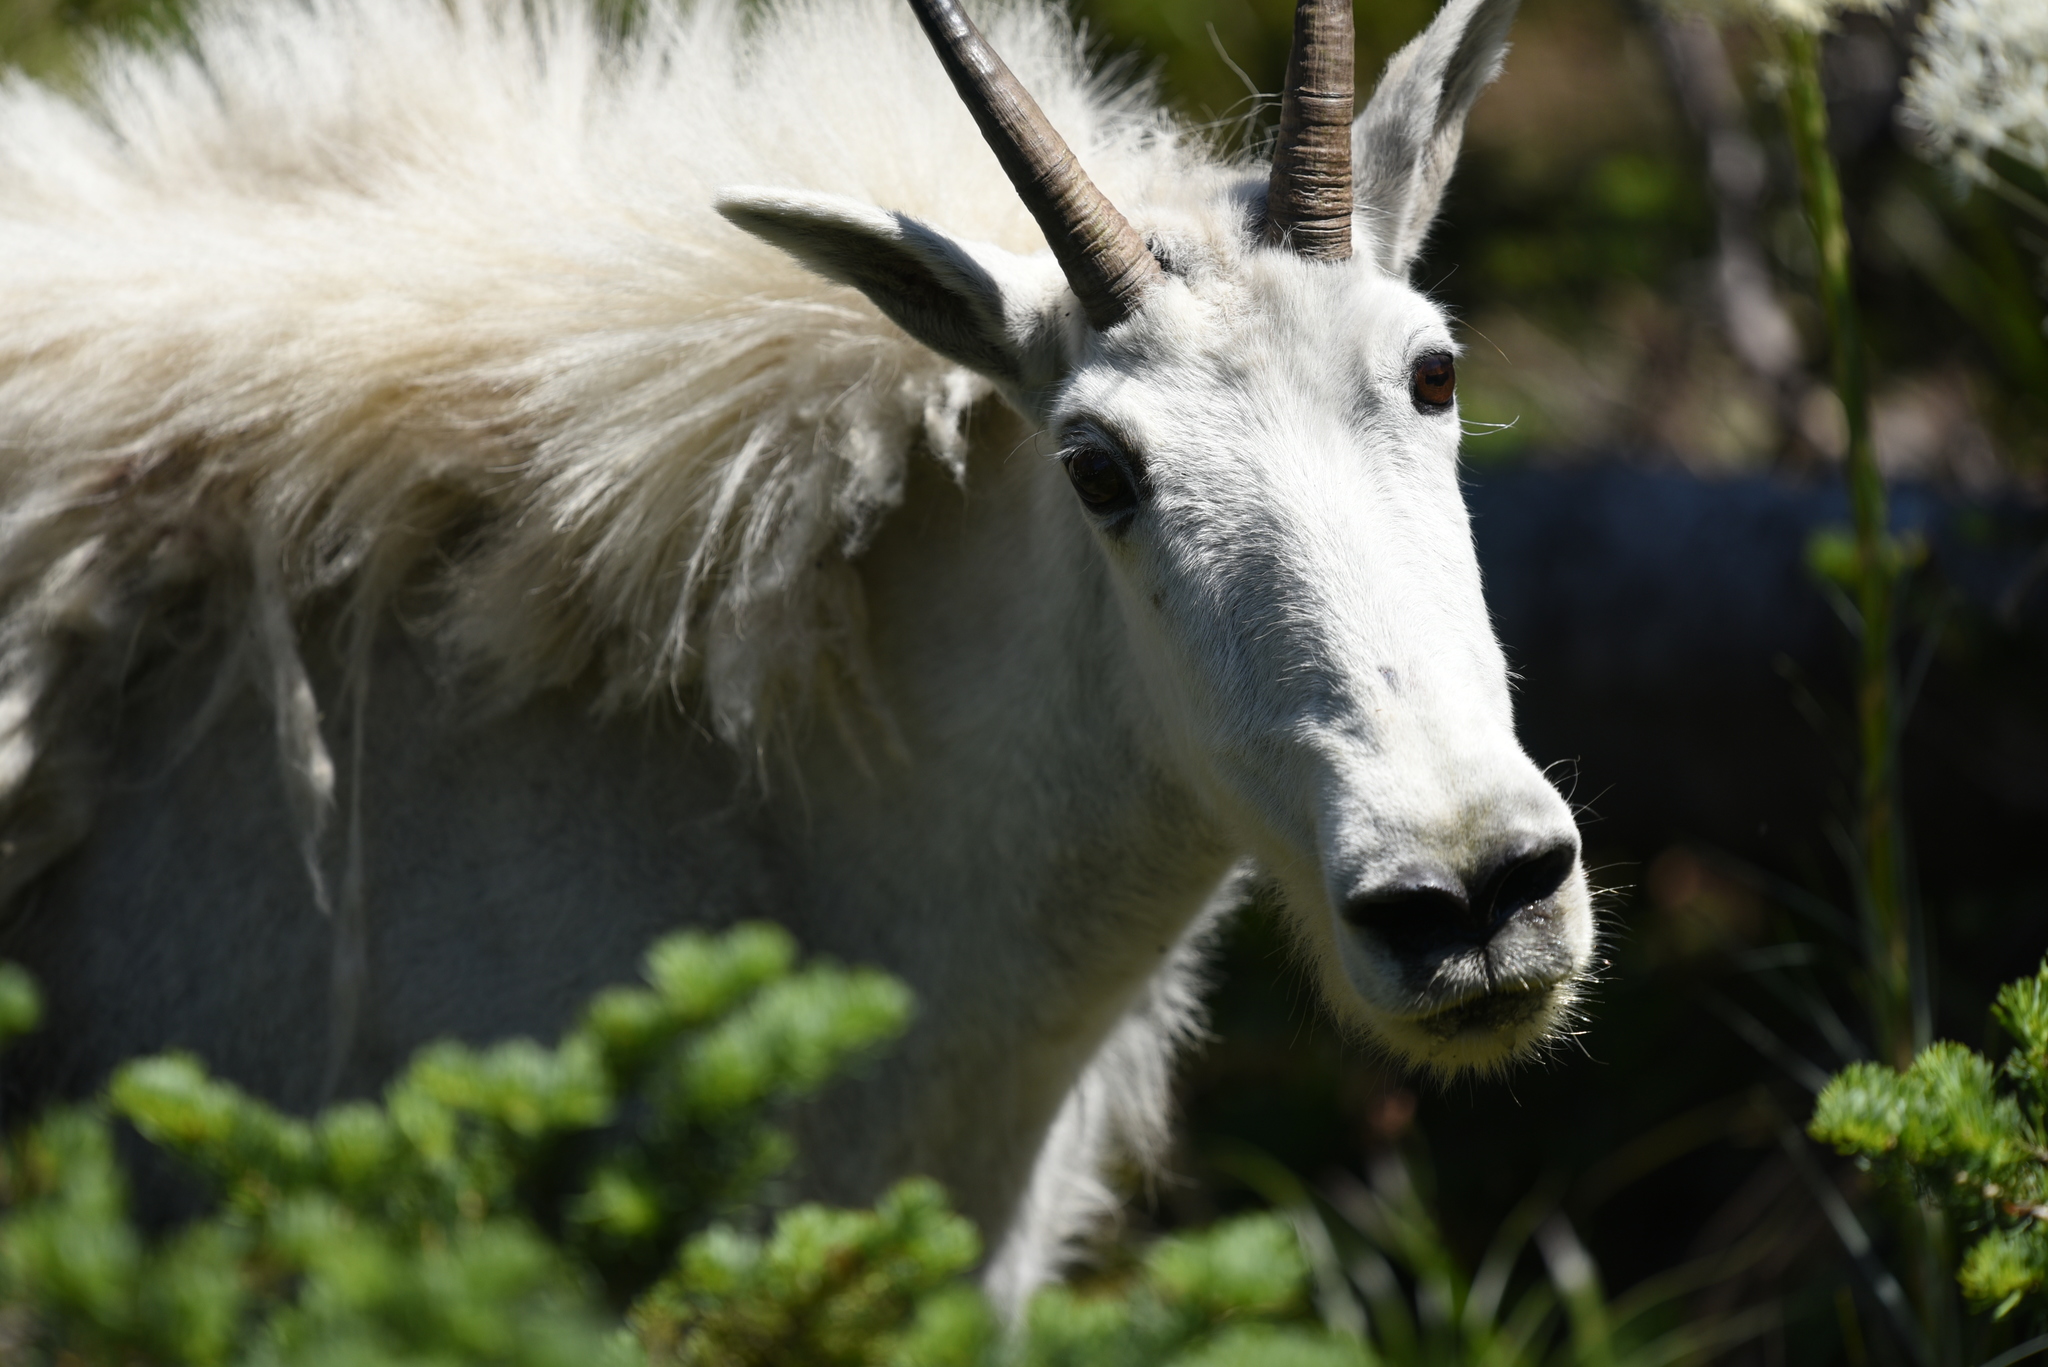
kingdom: Animalia
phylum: Chordata
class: Mammalia
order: Artiodactyla
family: Bovidae
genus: Oreamnos
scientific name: Oreamnos americanus
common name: Mountain goat
